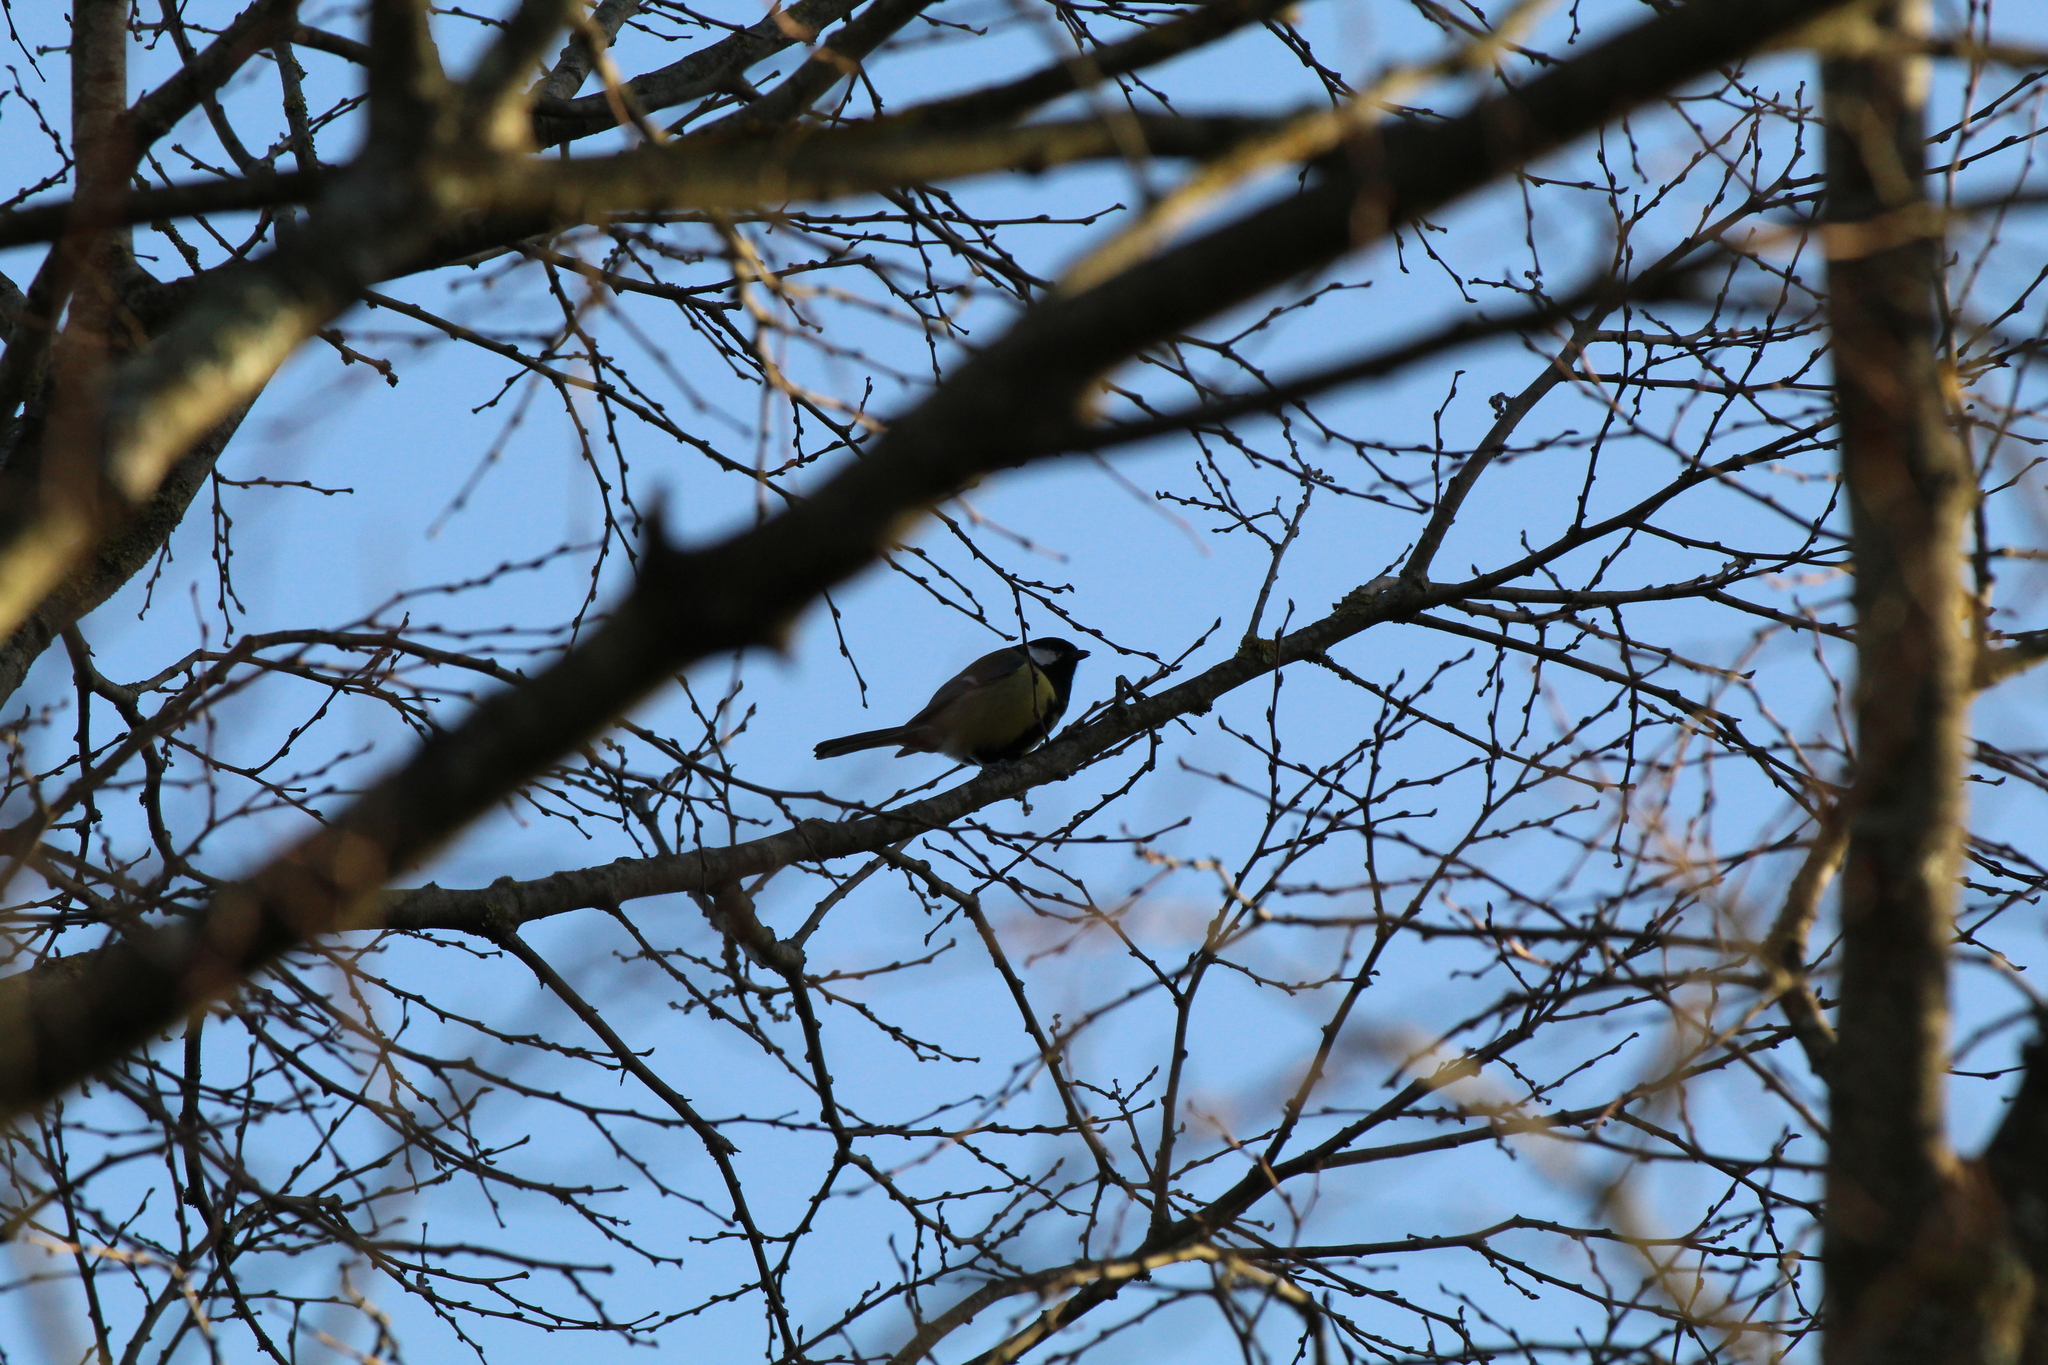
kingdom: Animalia
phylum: Chordata
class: Aves
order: Passeriformes
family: Paridae
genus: Parus
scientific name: Parus major
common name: Great tit
